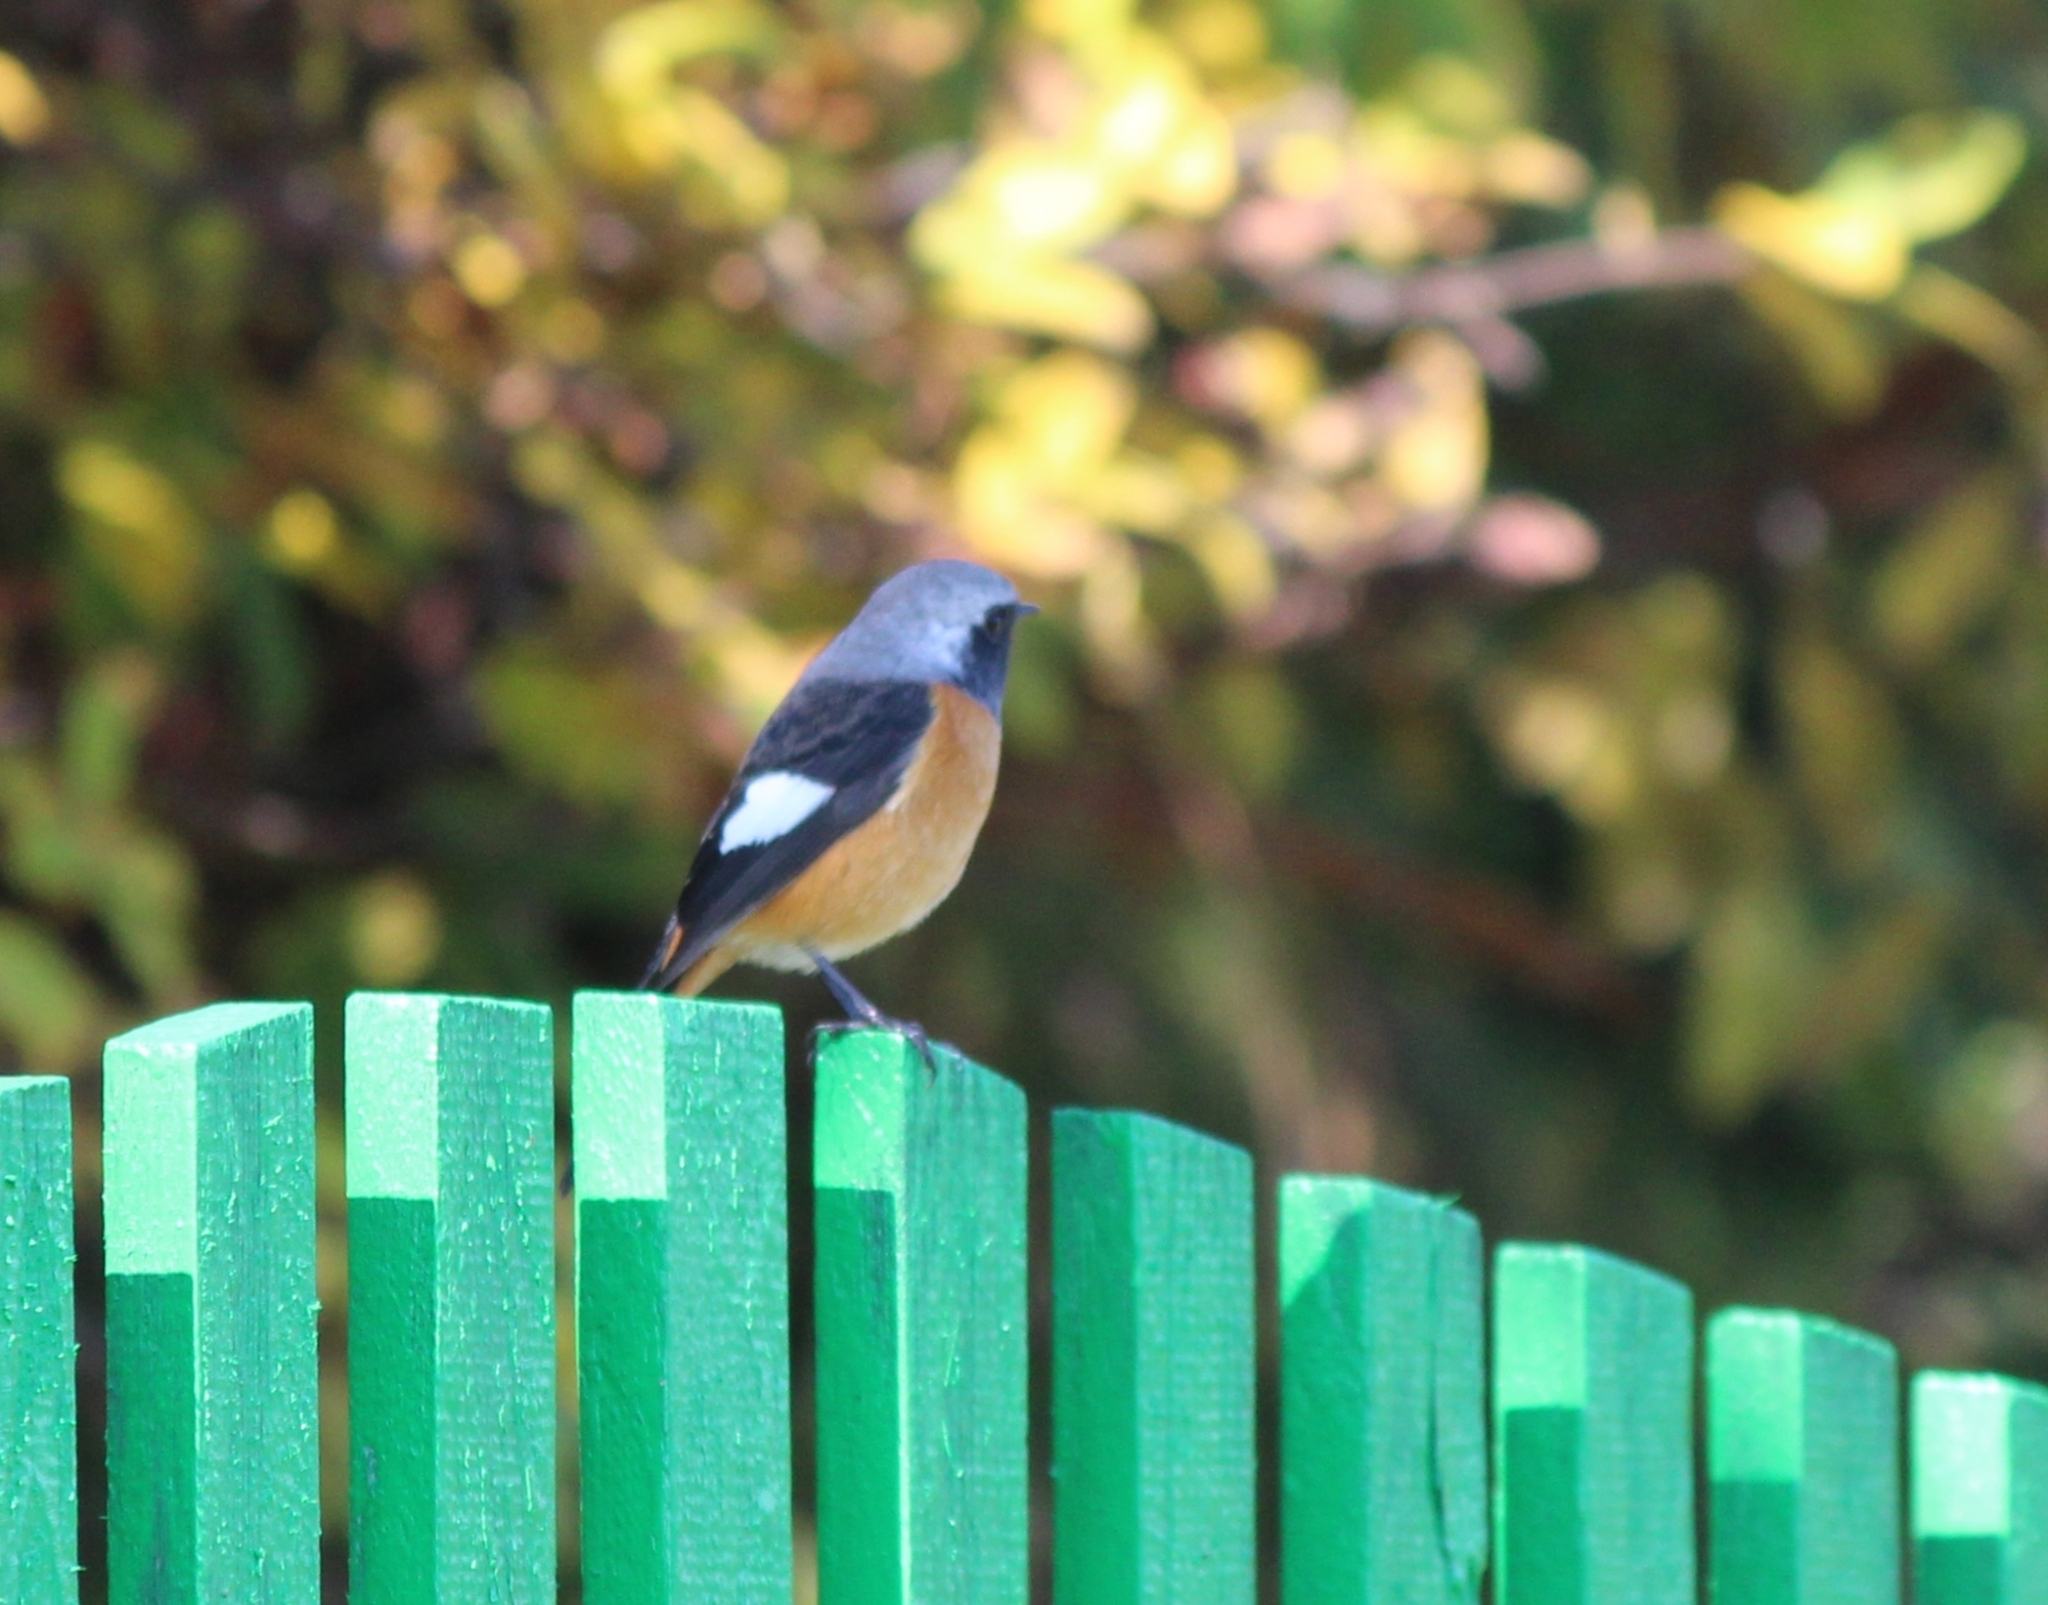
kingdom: Animalia
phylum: Chordata
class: Aves
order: Passeriformes
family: Muscicapidae
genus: Phoenicurus
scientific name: Phoenicurus auroreus
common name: Daurian redstart
